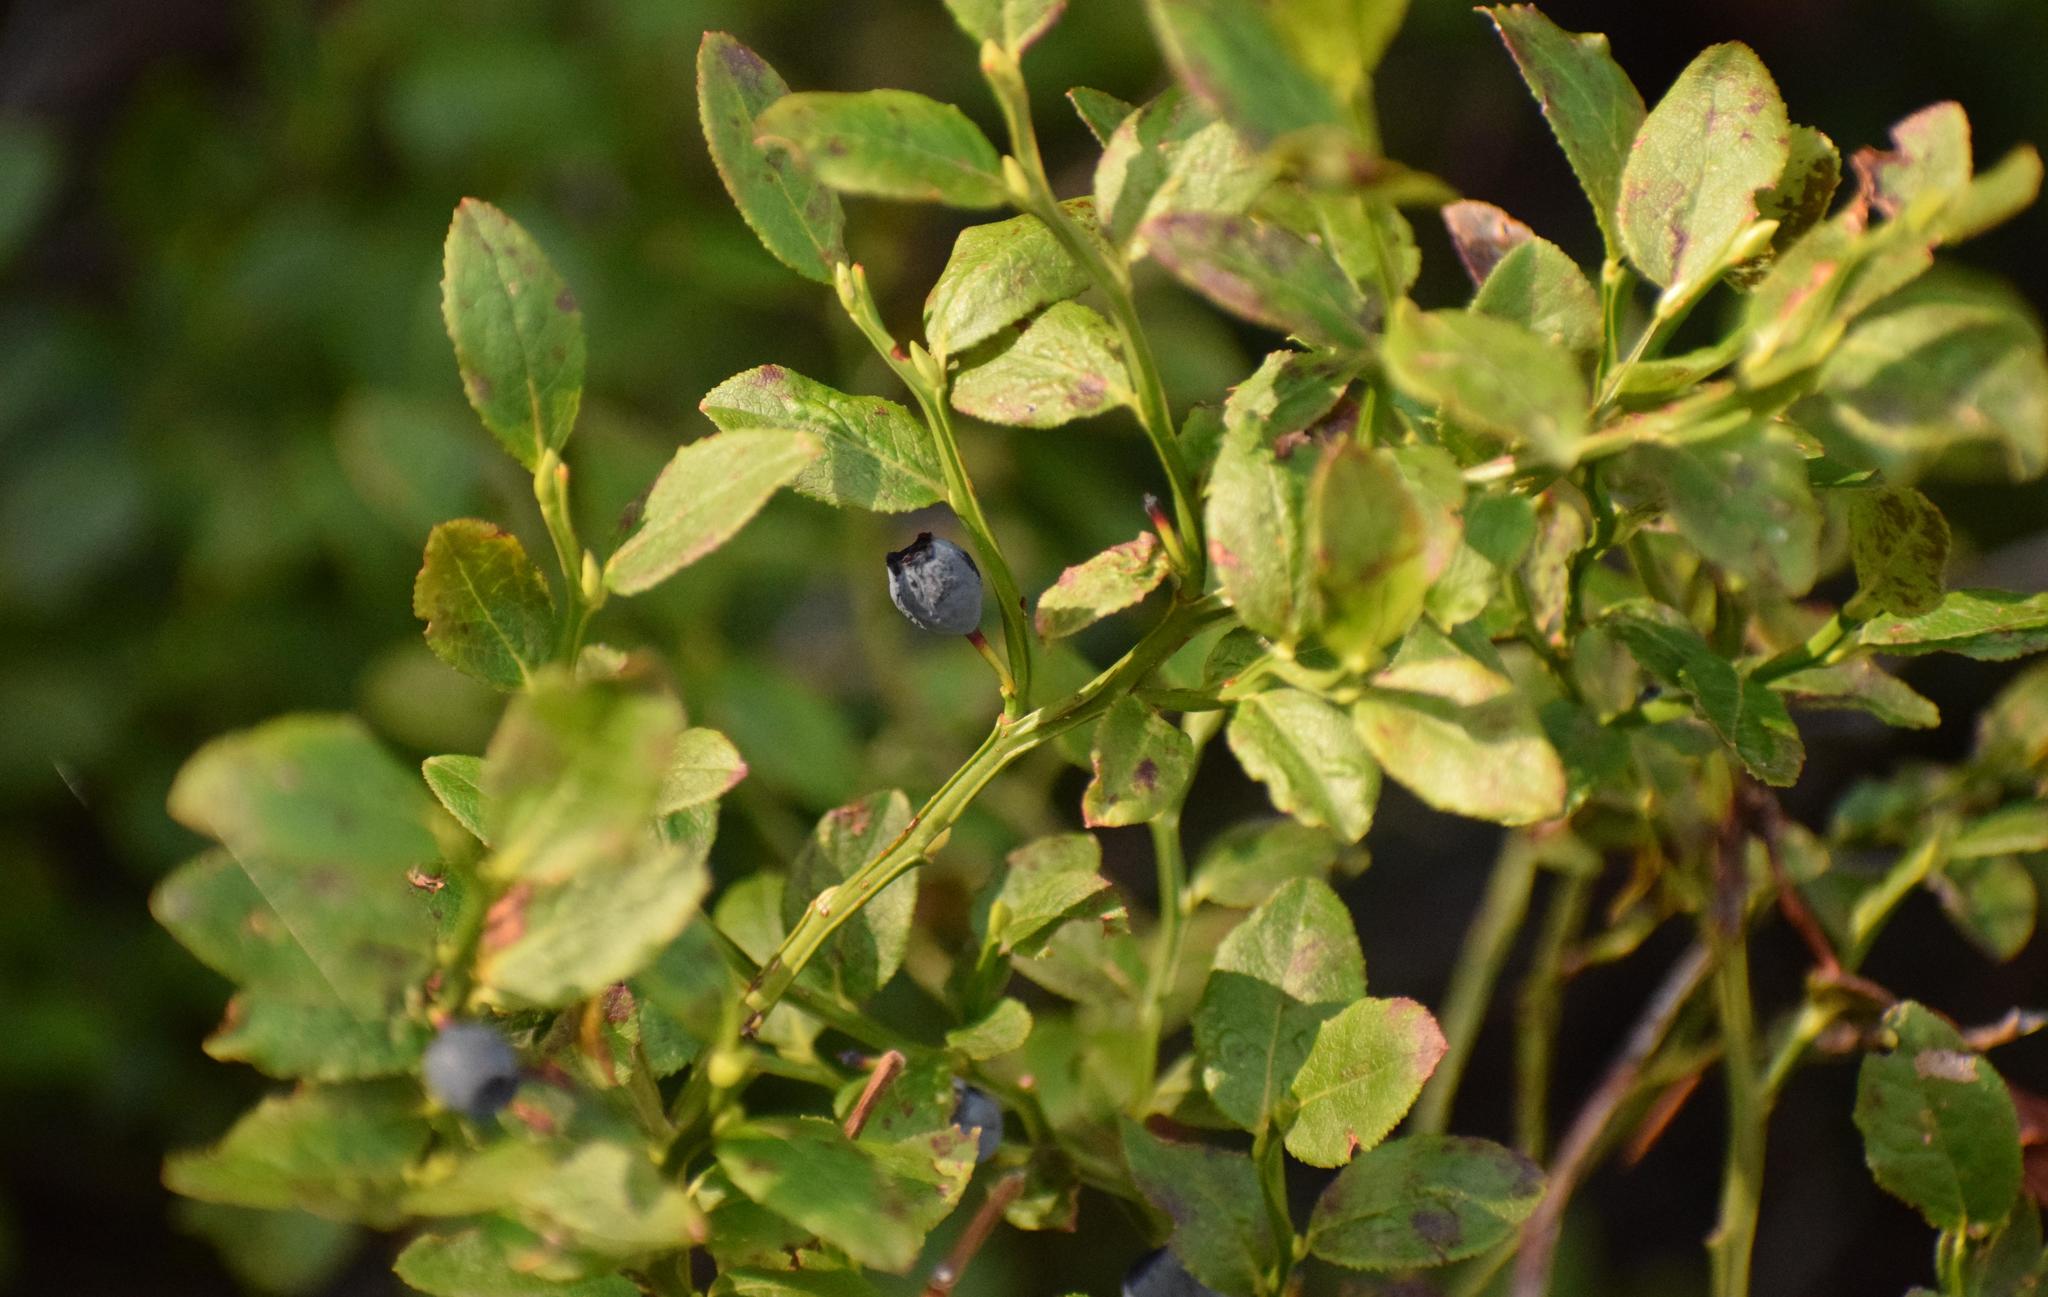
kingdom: Plantae
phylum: Tracheophyta
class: Magnoliopsida
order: Ericales
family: Ericaceae
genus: Vaccinium
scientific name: Vaccinium myrtillus
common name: Bilberry
